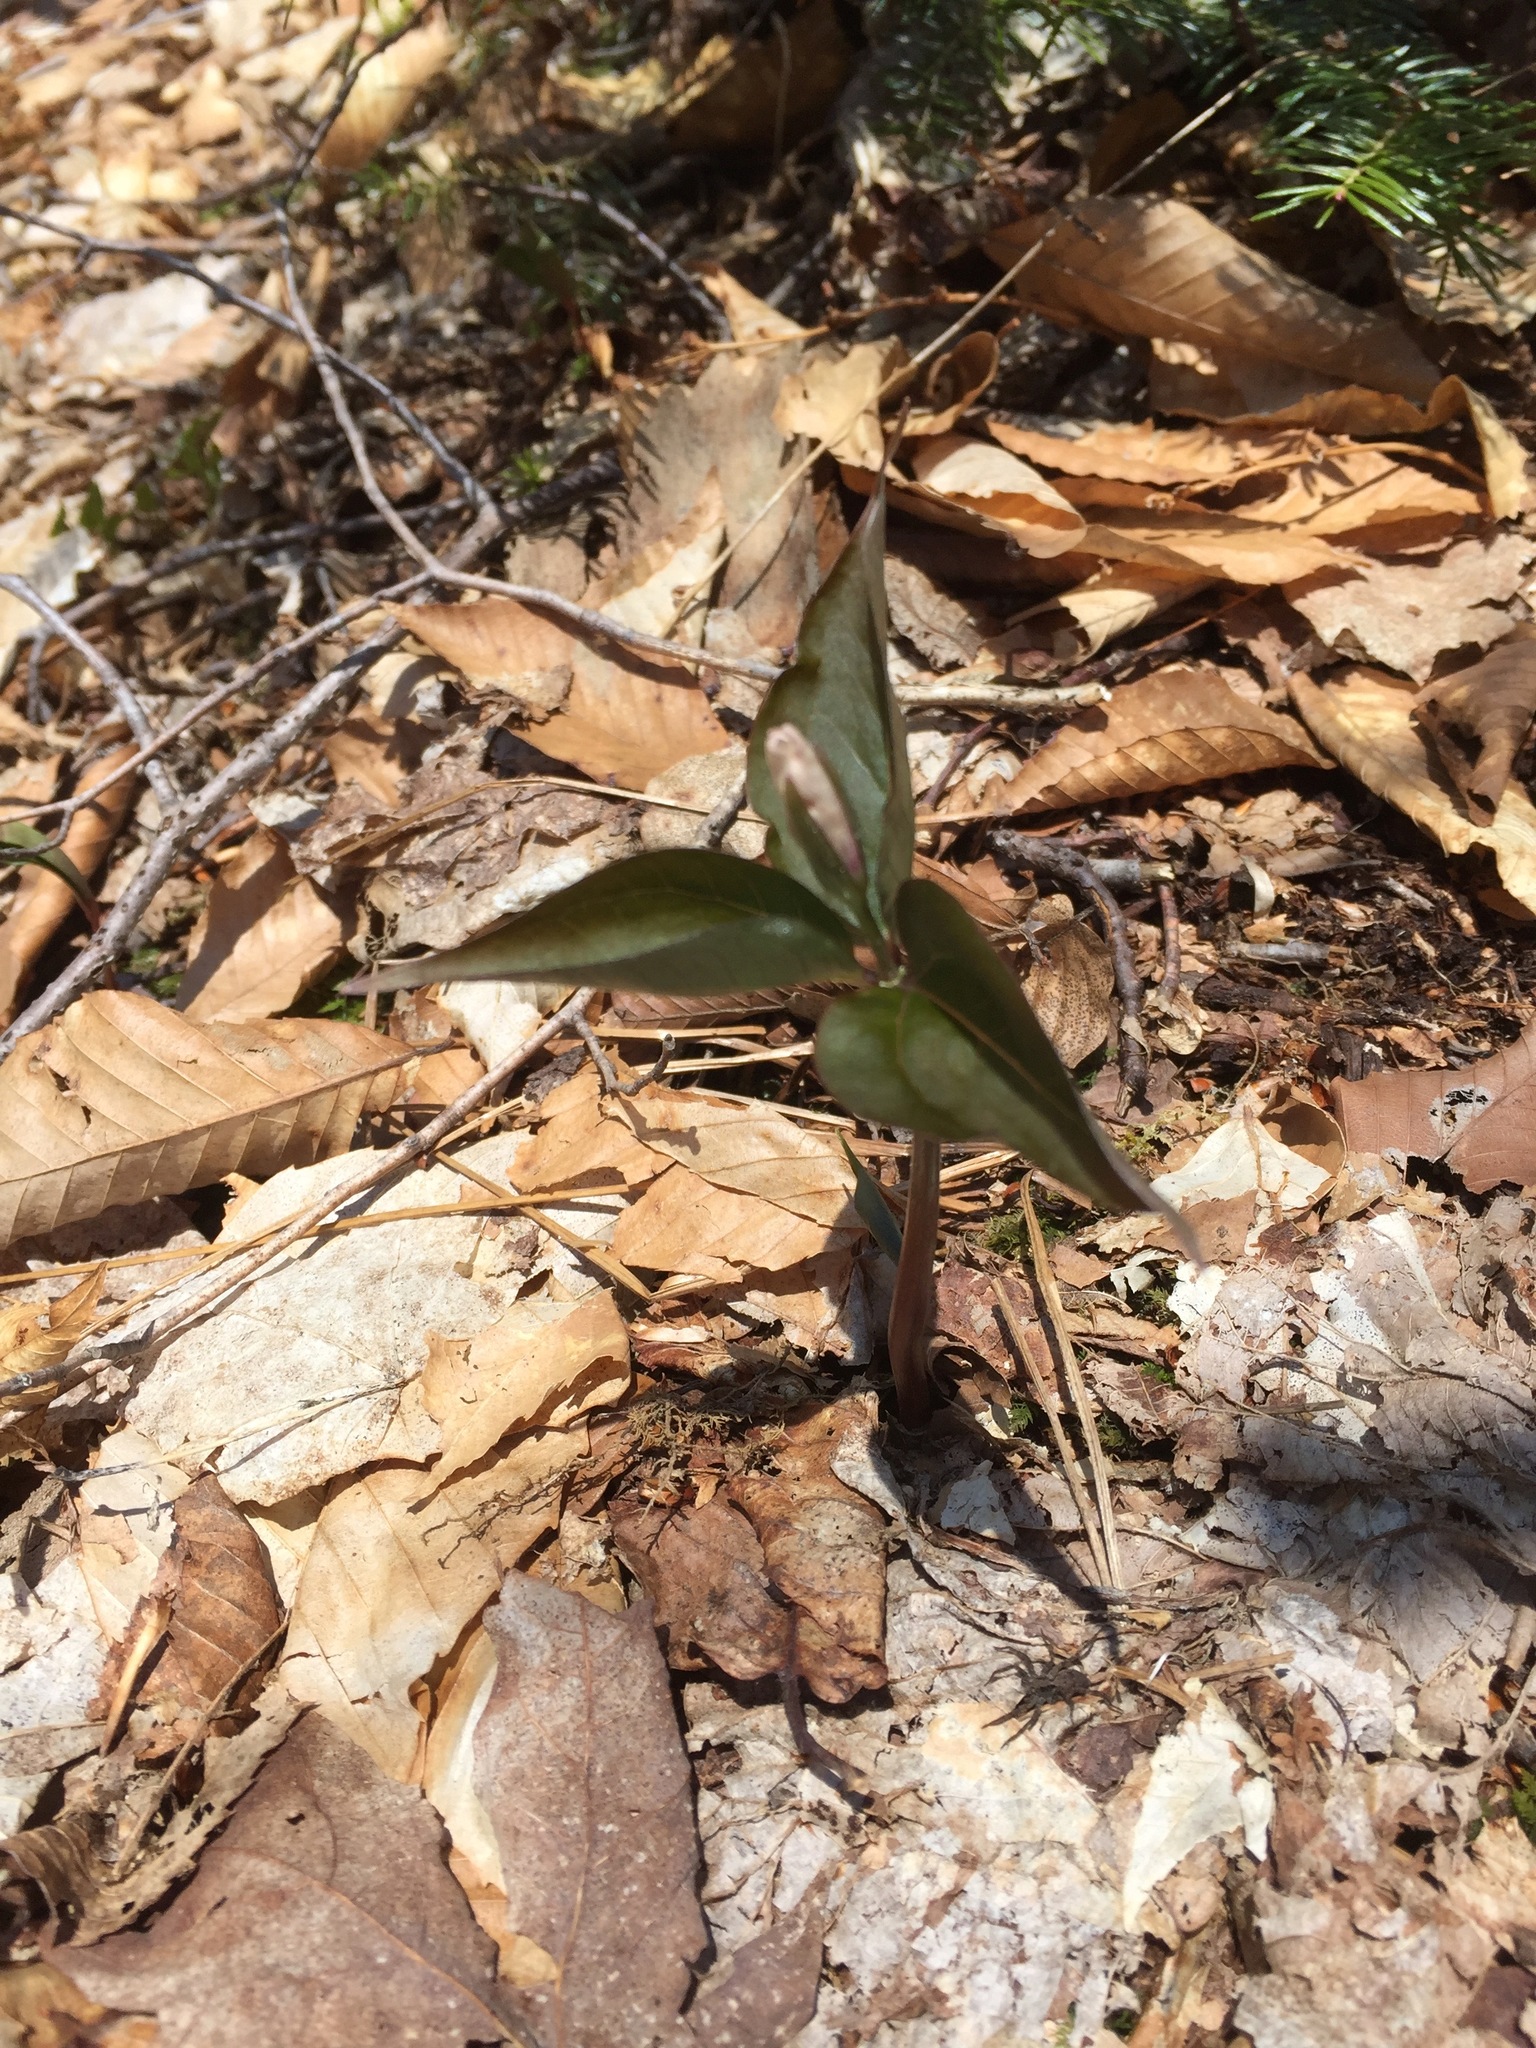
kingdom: Plantae
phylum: Tracheophyta
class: Liliopsida
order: Liliales
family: Melanthiaceae
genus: Trillium
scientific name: Trillium undulatum
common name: Paint trillium
